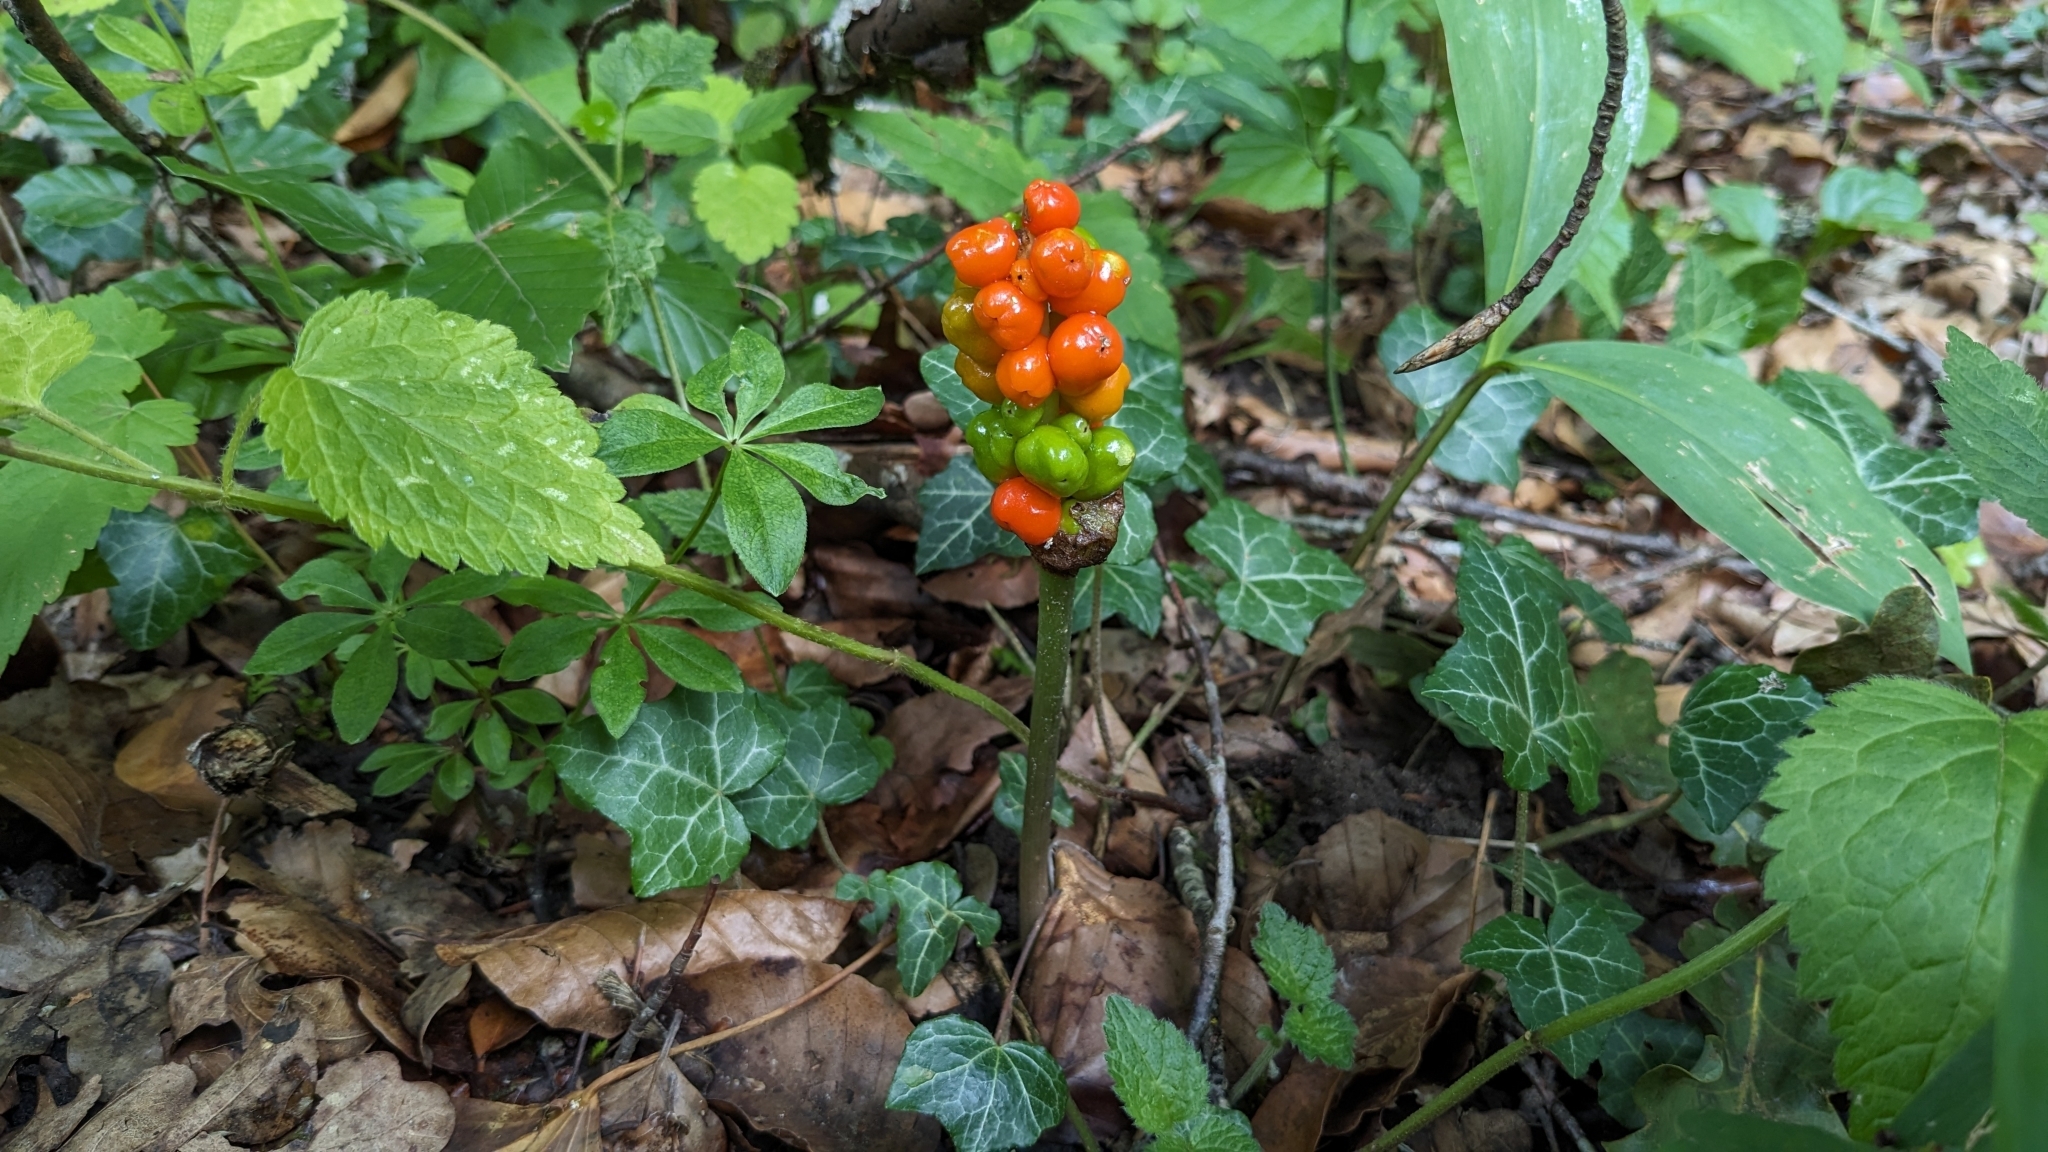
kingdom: Plantae
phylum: Tracheophyta
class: Liliopsida
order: Alismatales
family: Araceae
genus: Arum
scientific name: Arum maculatum
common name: Lords-and-ladies
